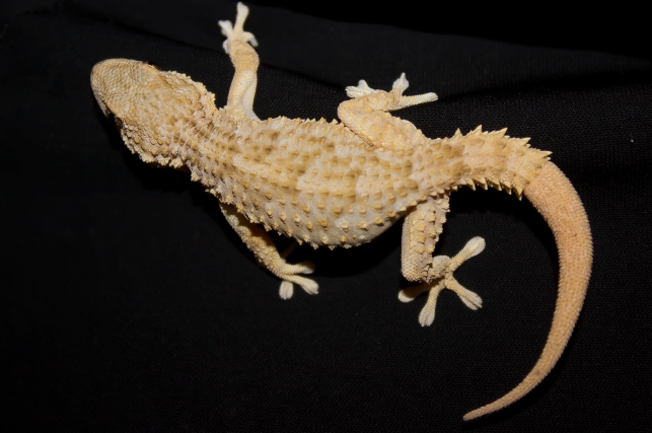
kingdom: Animalia
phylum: Chordata
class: Squamata
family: Phyllodactylidae
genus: Tarentola
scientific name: Tarentola mauritanica
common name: Moorish gecko
